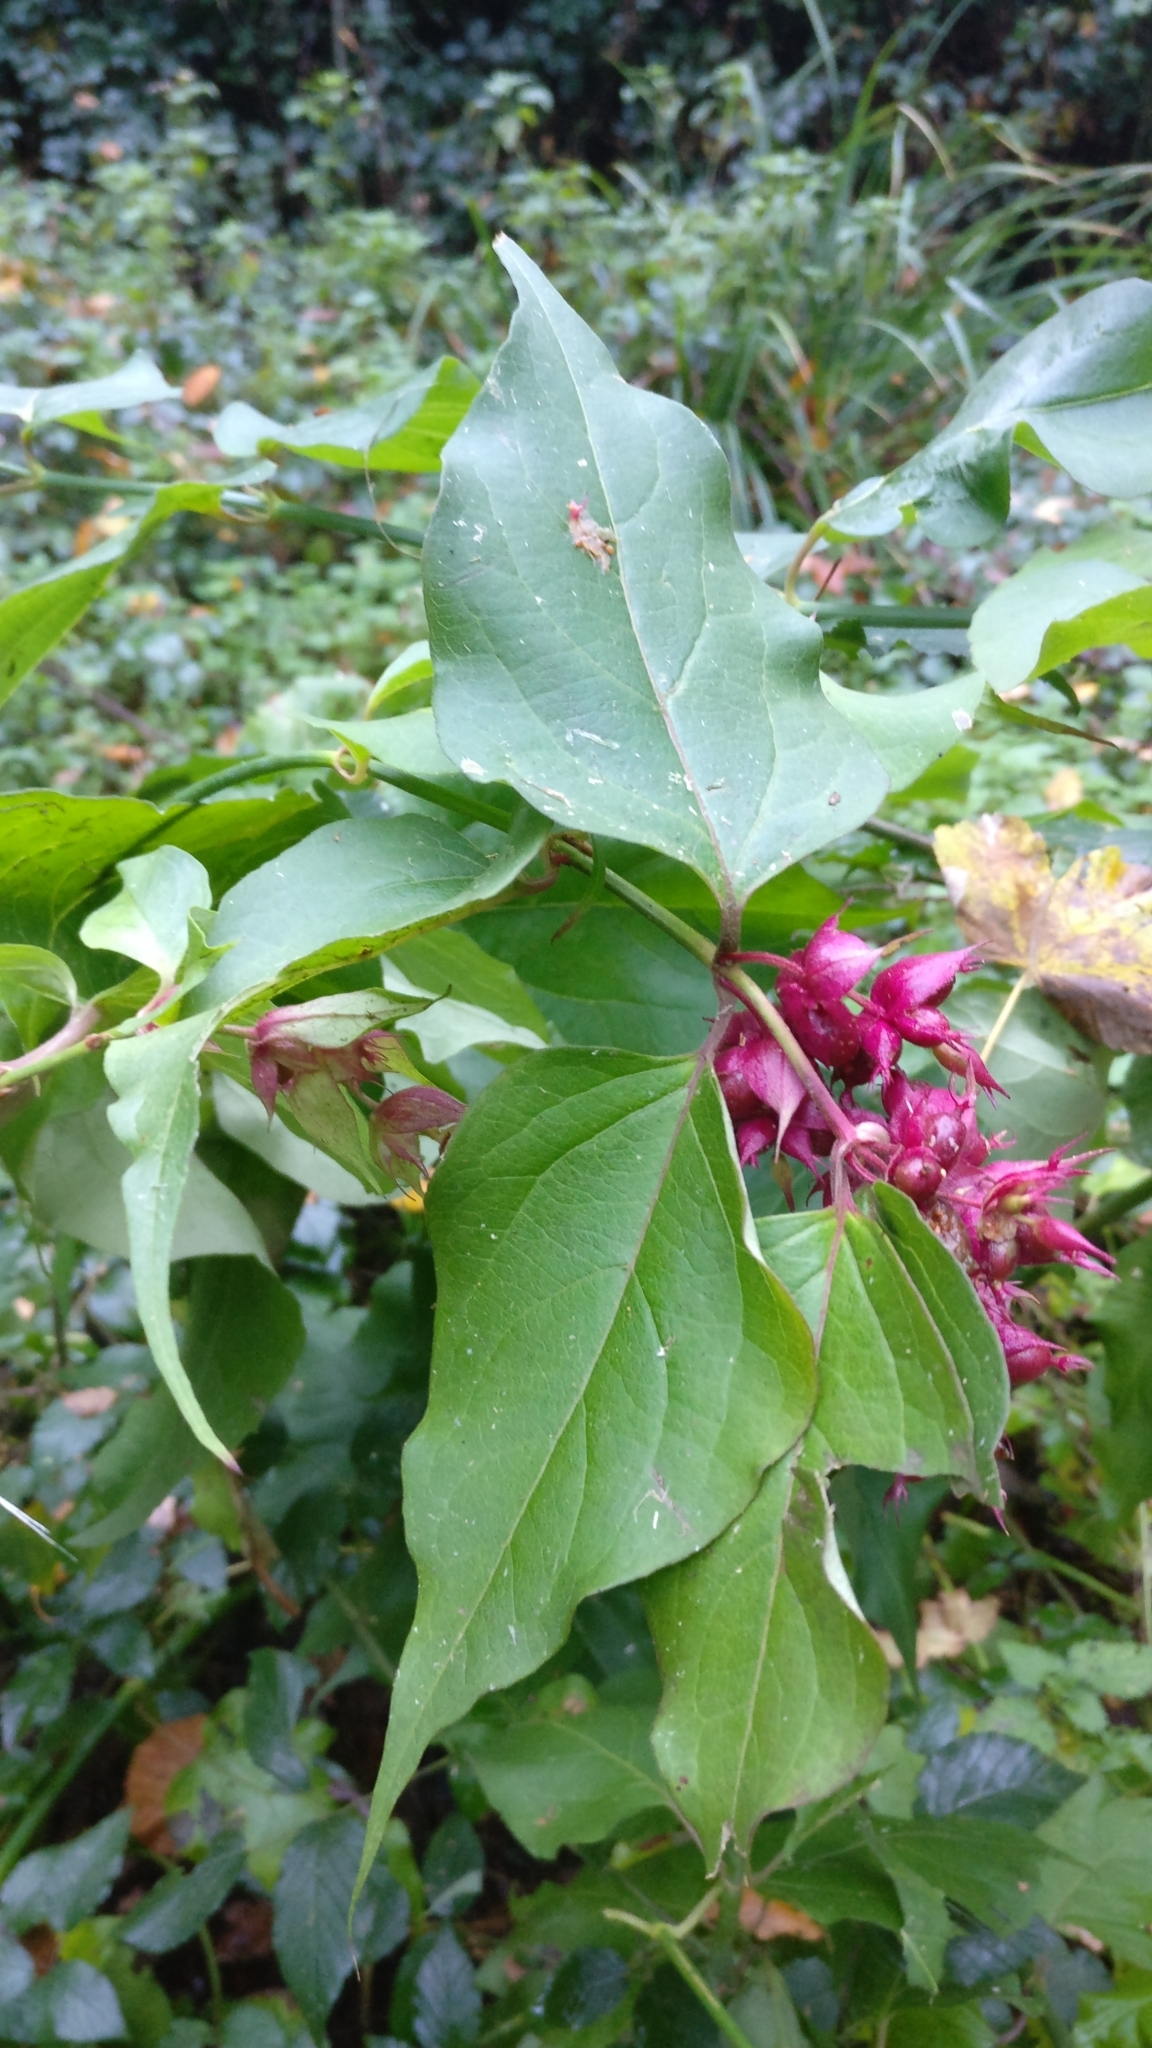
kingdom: Plantae
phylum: Tracheophyta
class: Magnoliopsida
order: Dipsacales
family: Caprifoliaceae
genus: Leycesteria
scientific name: Leycesteria formosa
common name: Himalayan honeysuckle
